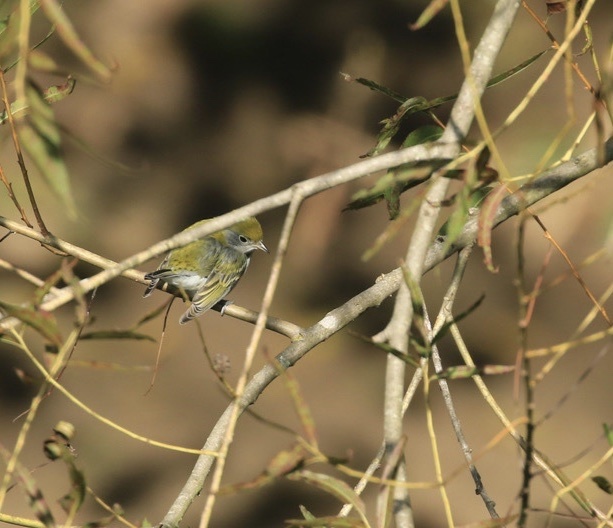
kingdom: Animalia
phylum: Chordata
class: Aves
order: Passeriformes
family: Parulidae
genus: Setophaga
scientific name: Setophaga pensylvanica
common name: Chestnut-sided warbler
